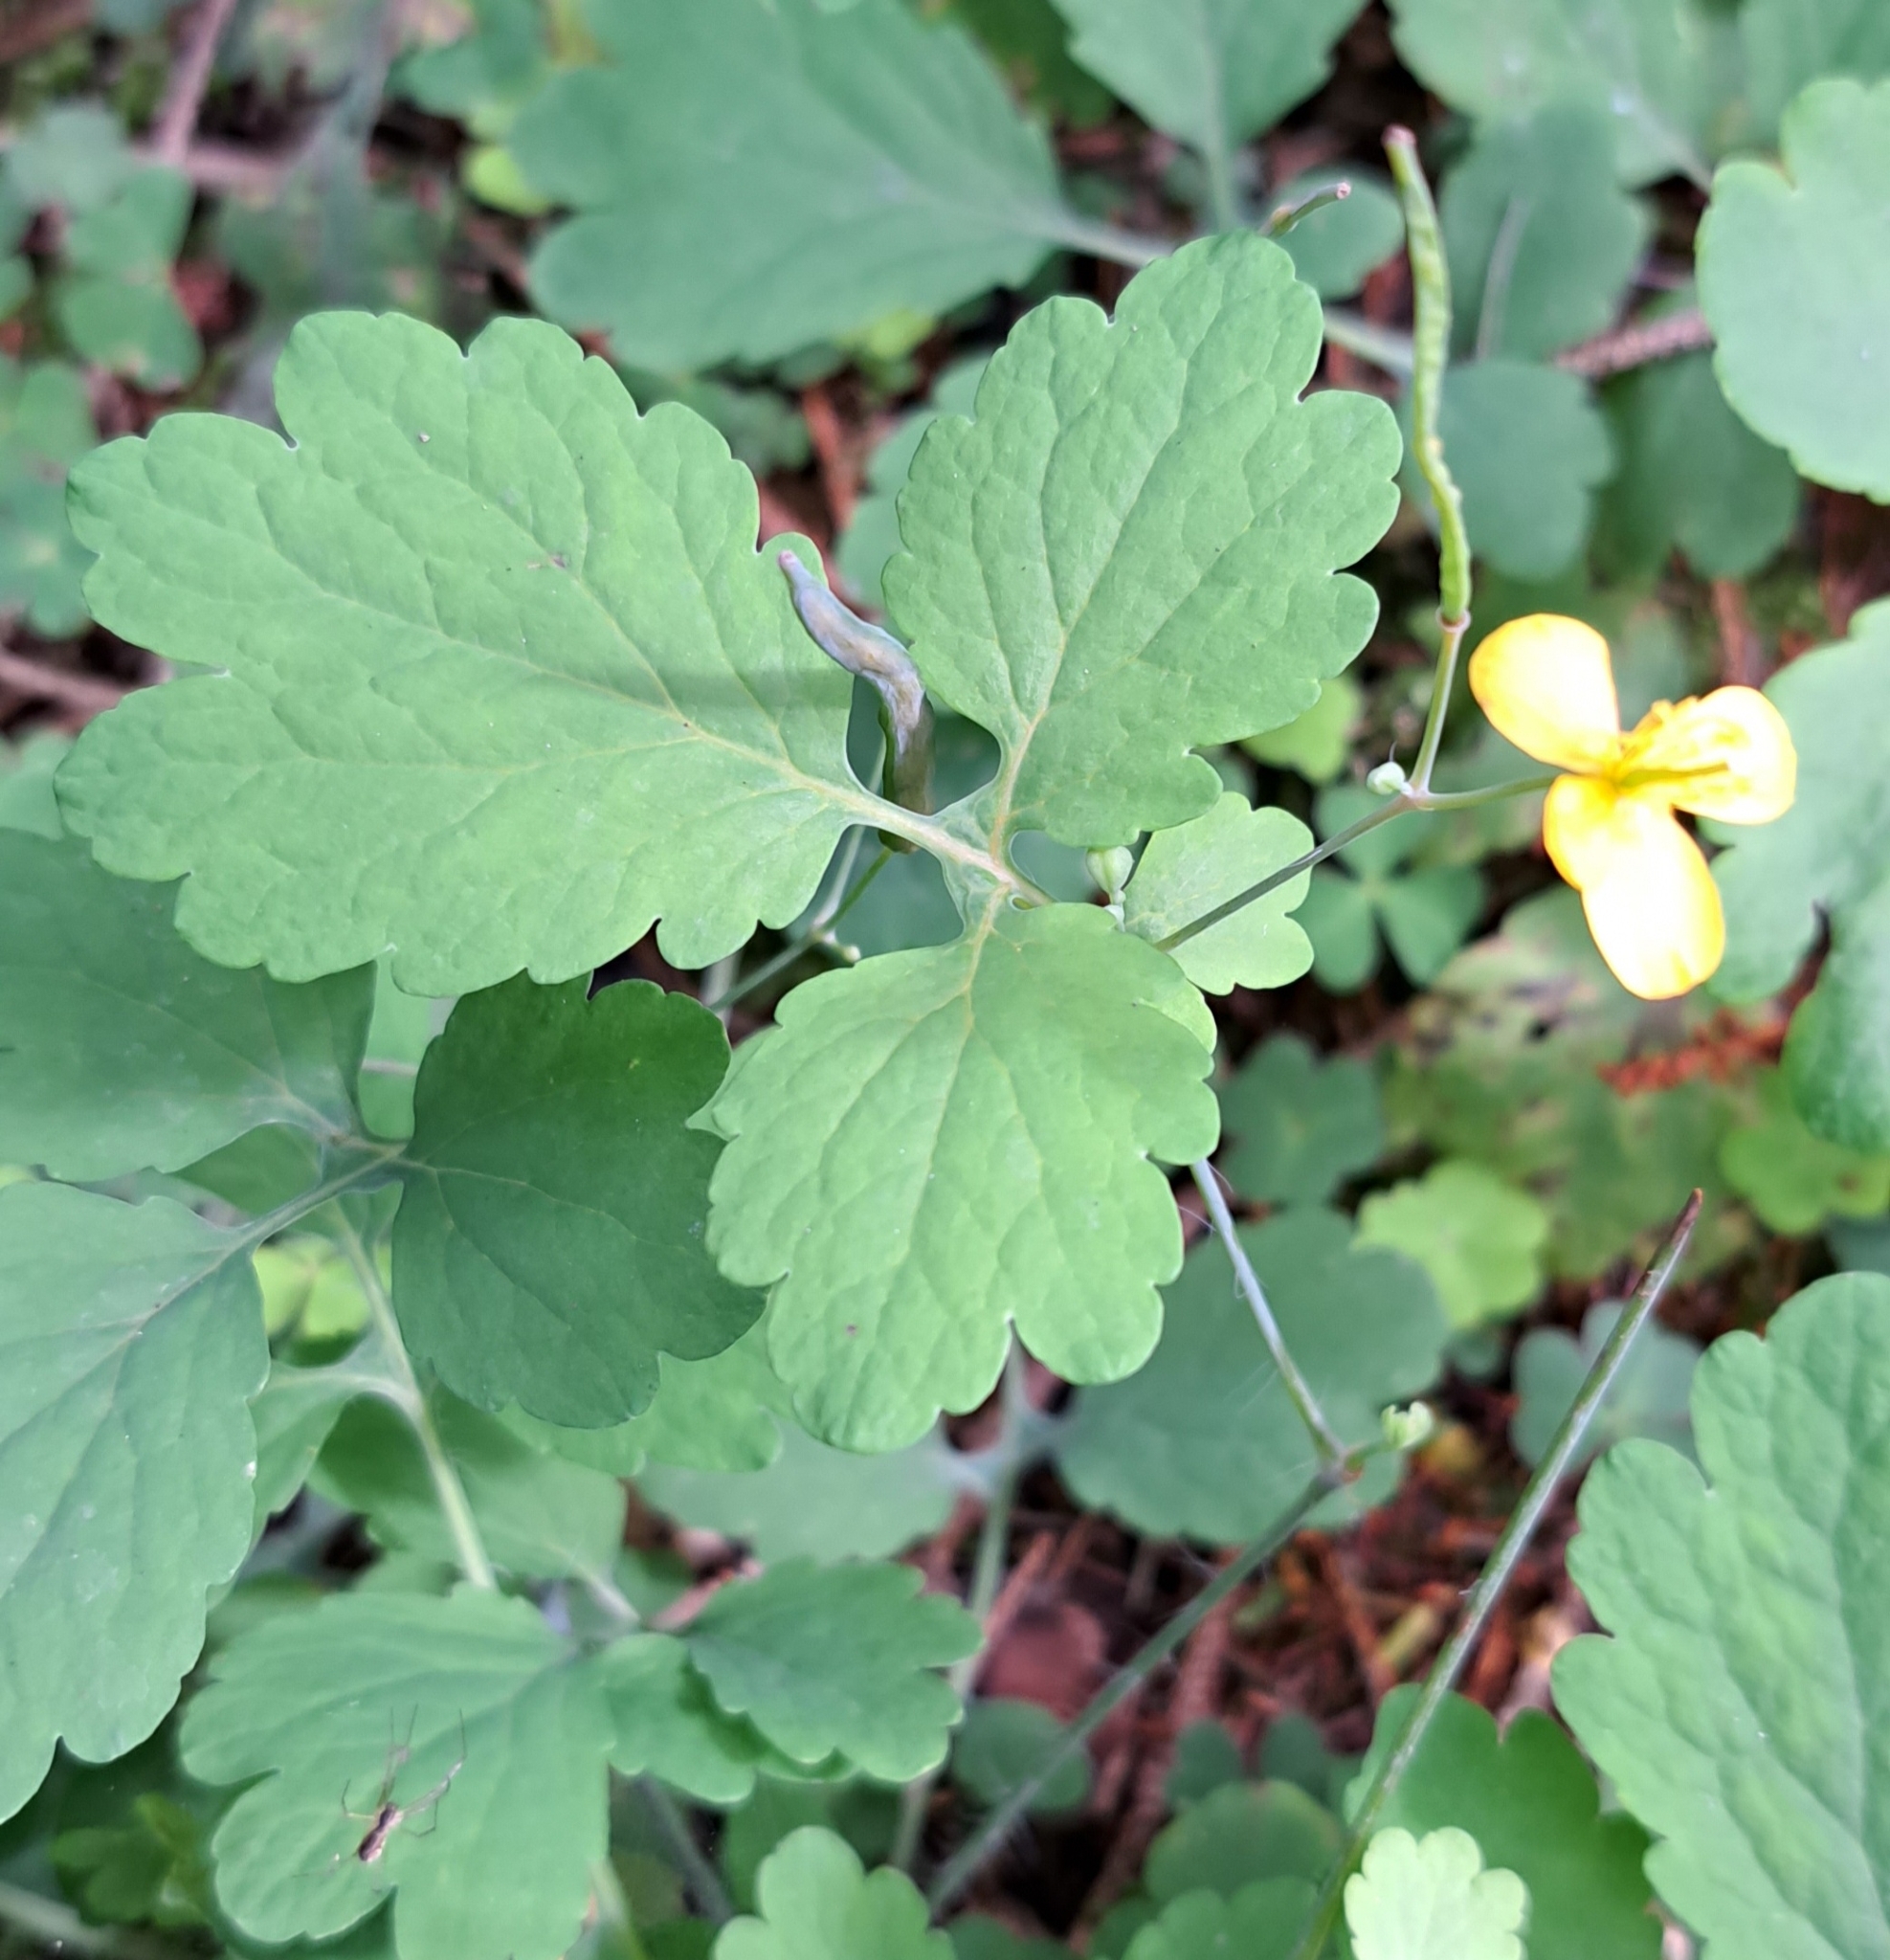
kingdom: Plantae
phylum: Tracheophyta
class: Magnoliopsida
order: Ranunculales
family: Papaveraceae
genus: Chelidonium
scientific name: Chelidonium majus
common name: Greater celandine
